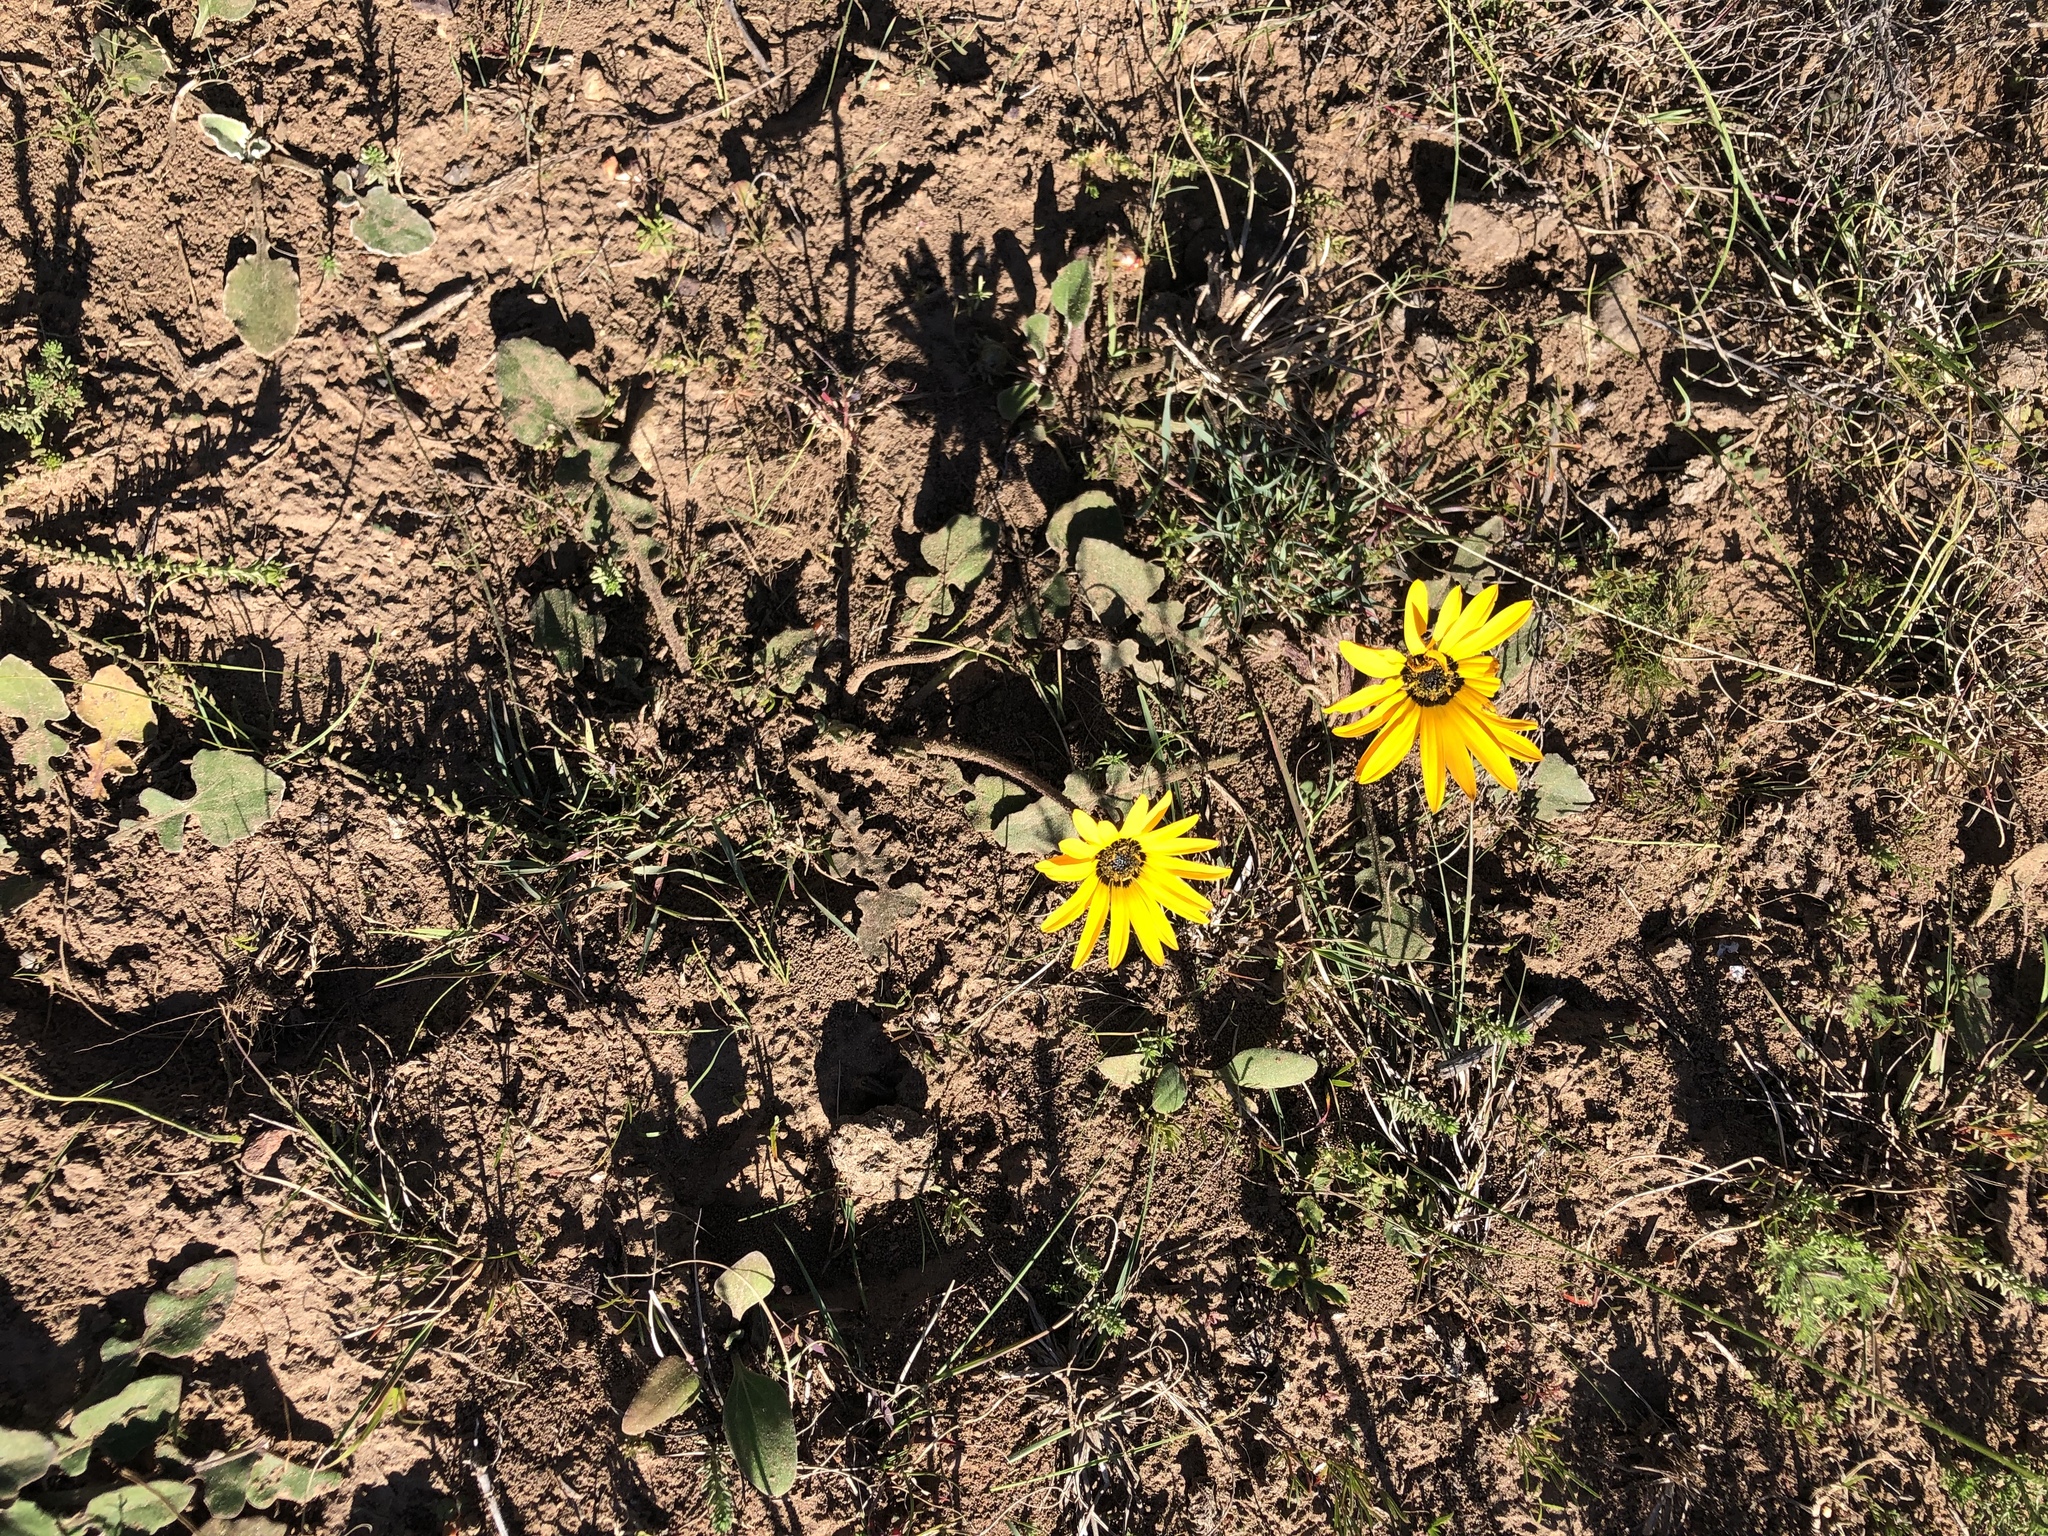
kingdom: Plantae
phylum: Tracheophyta
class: Magnoliopsida
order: Asterales
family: Asteraceae
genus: Arctotis
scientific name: Arctotis acaulis
